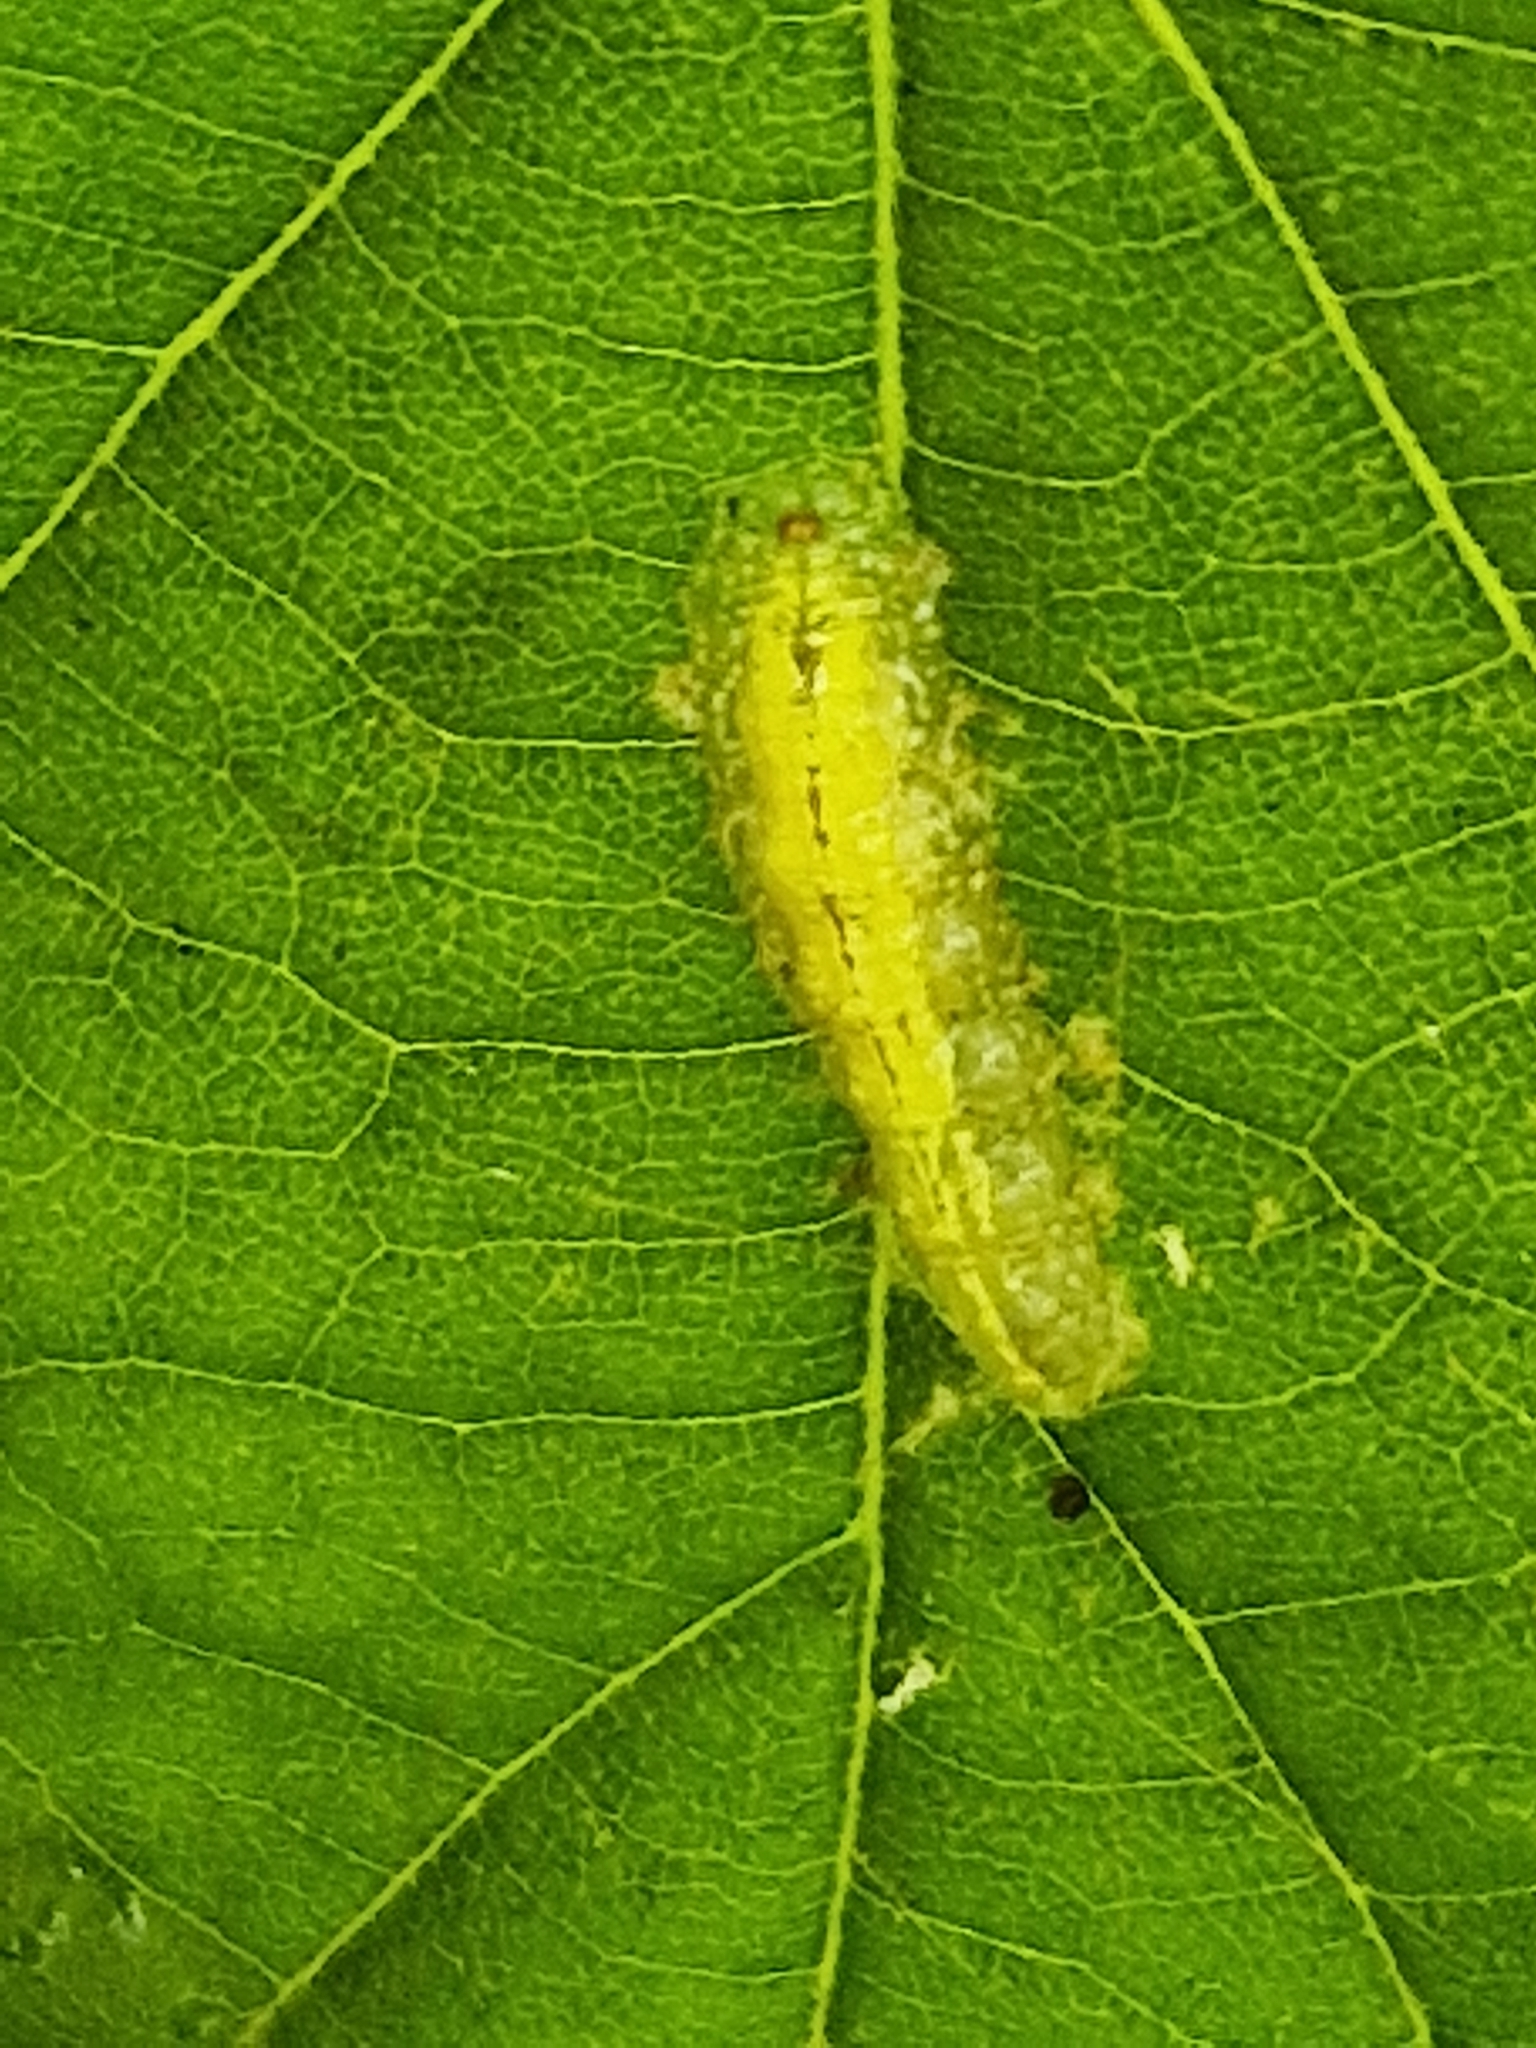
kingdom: Animalia
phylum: Arthropoda
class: Insecta
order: Diptera
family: Syrphidae
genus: Syrphus
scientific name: Syrphus
